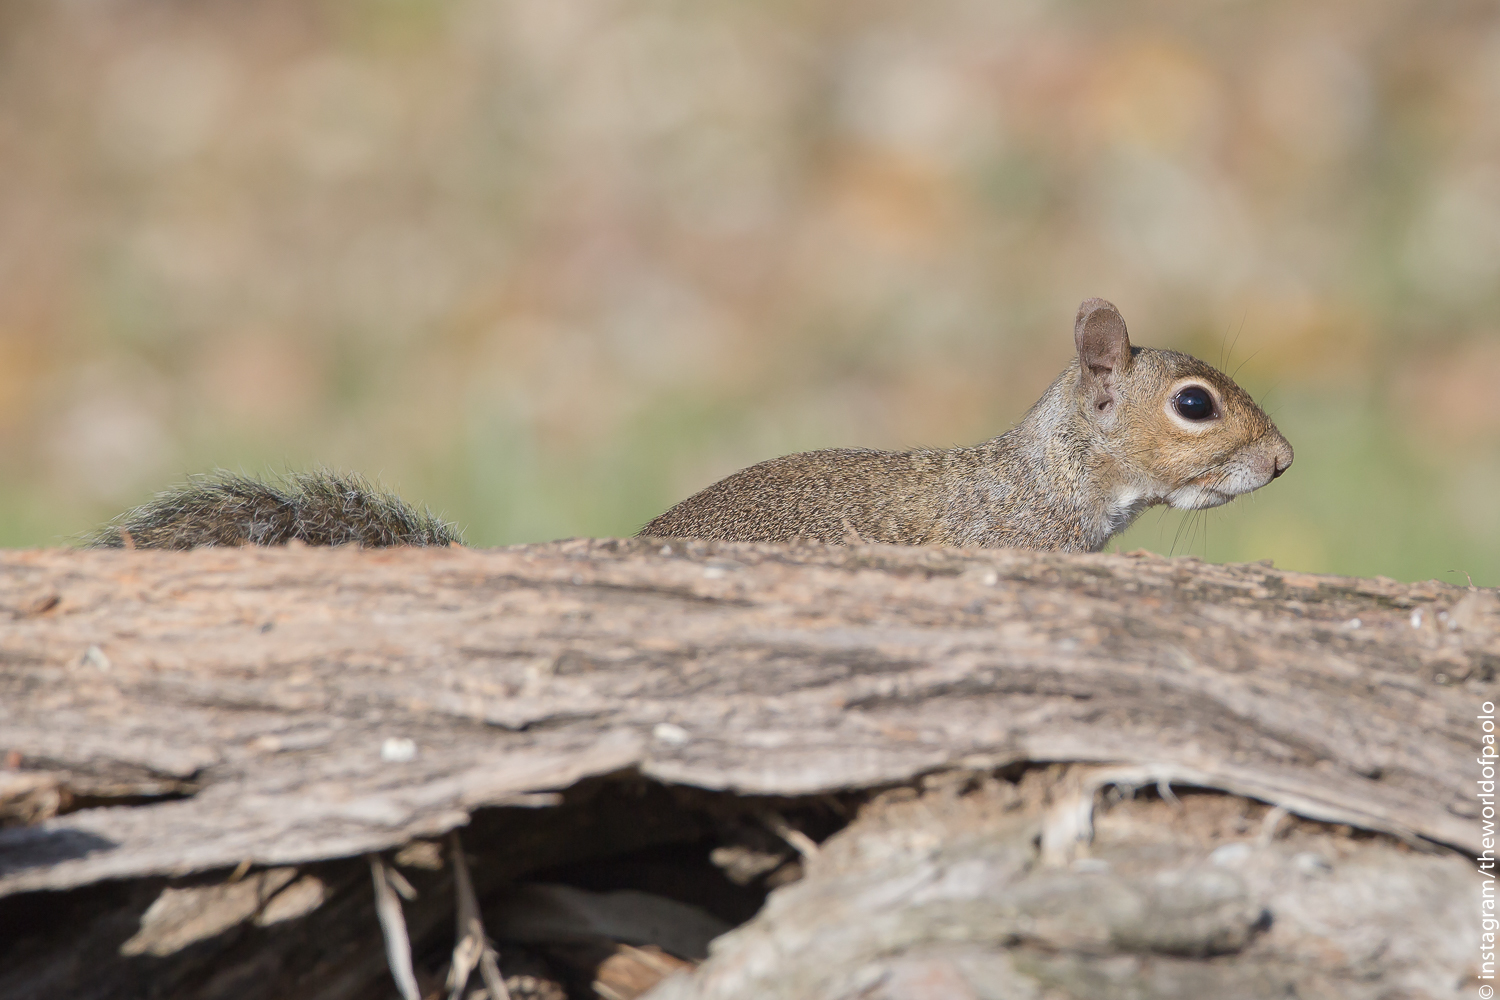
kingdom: Animalia
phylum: Chordata
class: Mammalia
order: Rodentia
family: Sciuridae
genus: Sciurus
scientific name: Sciurus carolinensis
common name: Eastern gray squirrel
